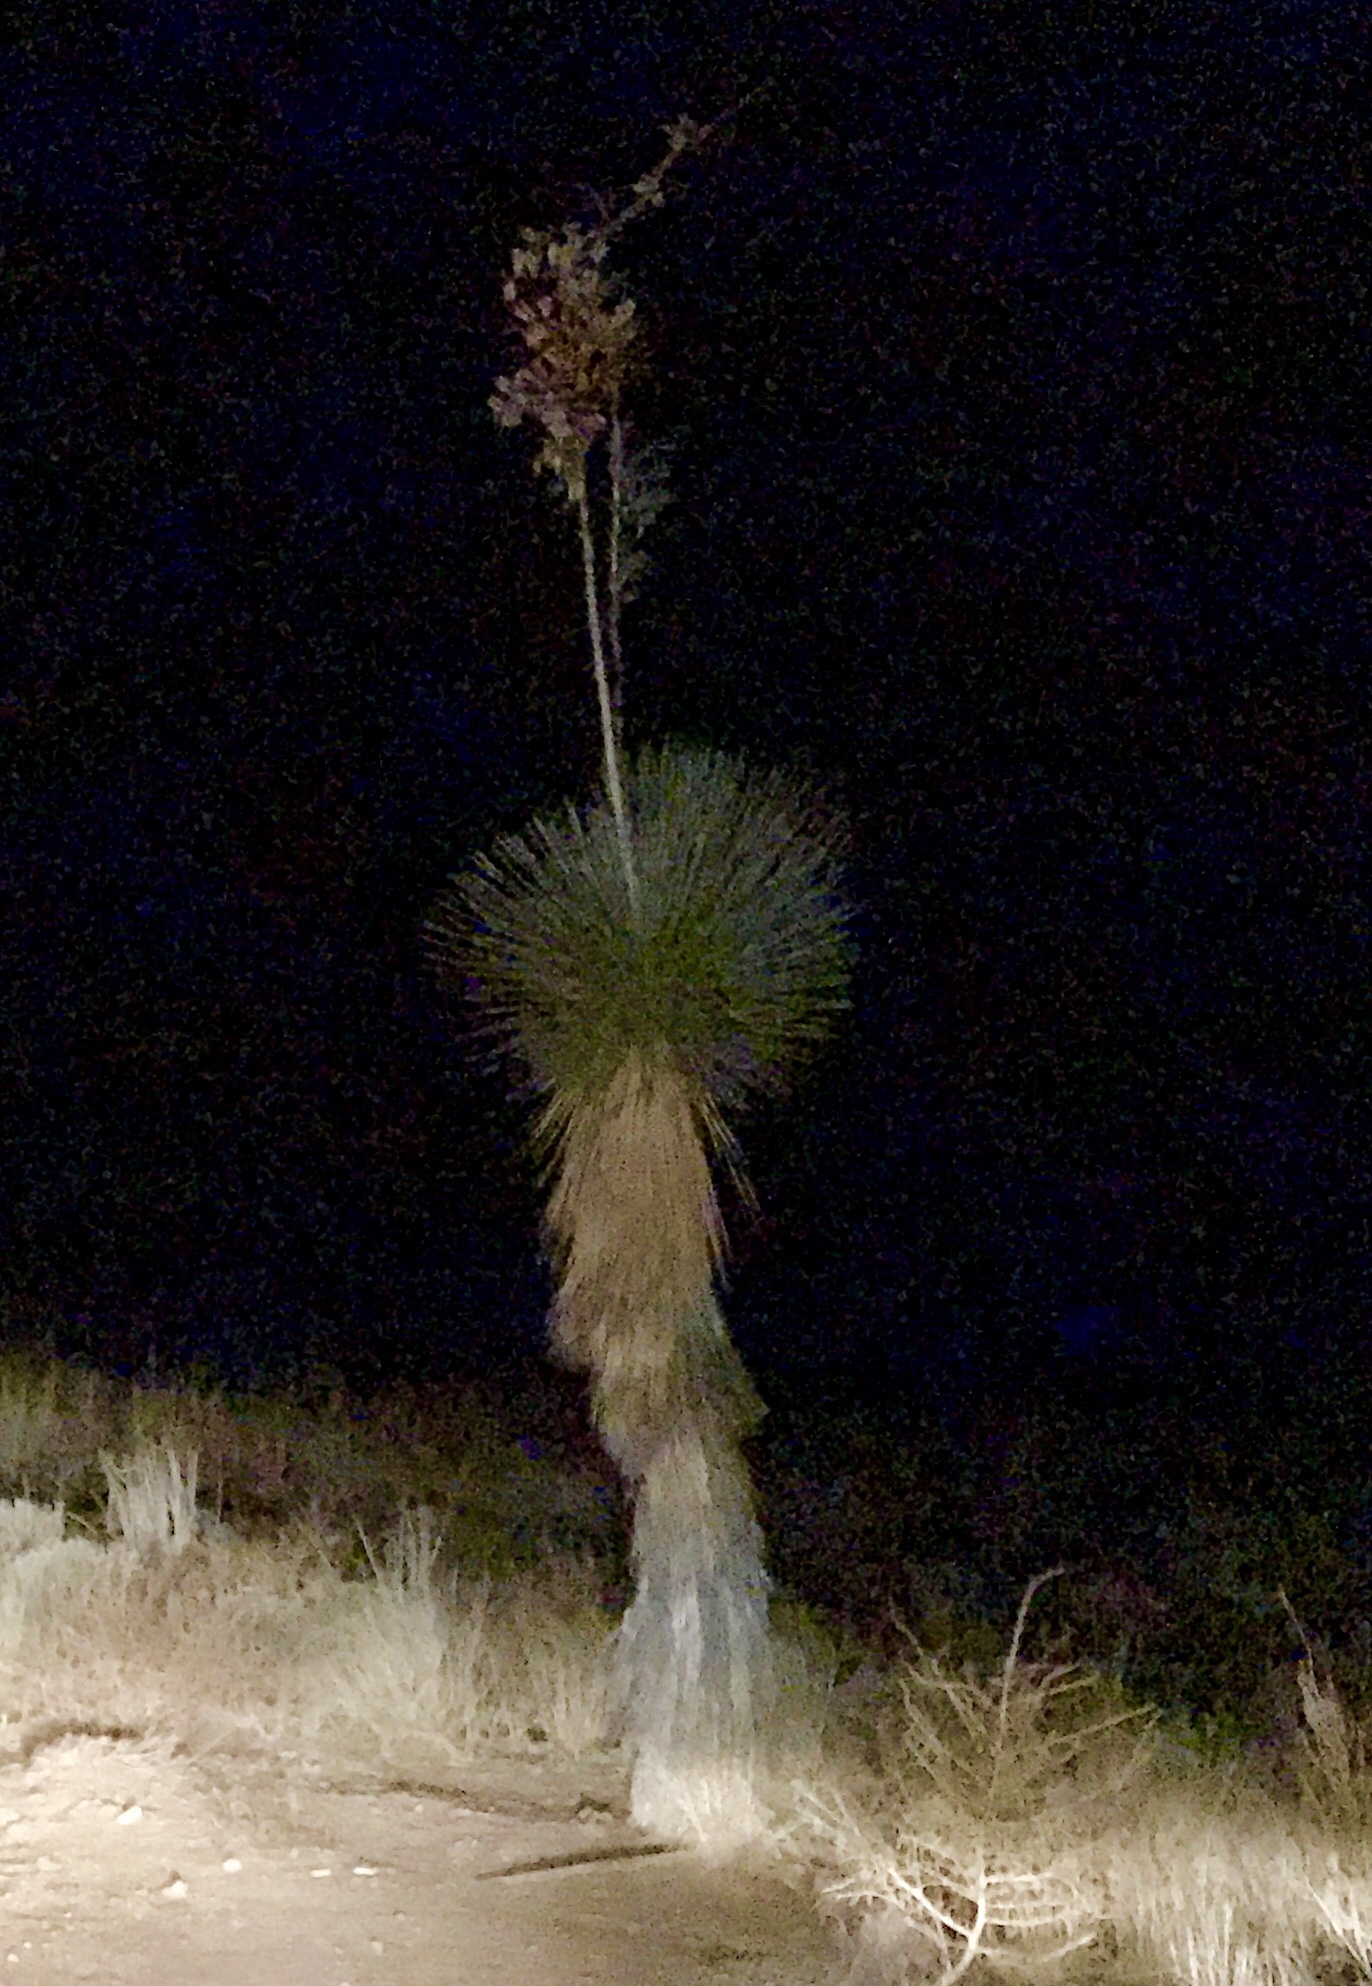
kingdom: Plantae
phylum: Tracheophyta
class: Liliopsida
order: Asparagales
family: Asparagaceae
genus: Yucca
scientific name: Yucca elata
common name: Palmella
